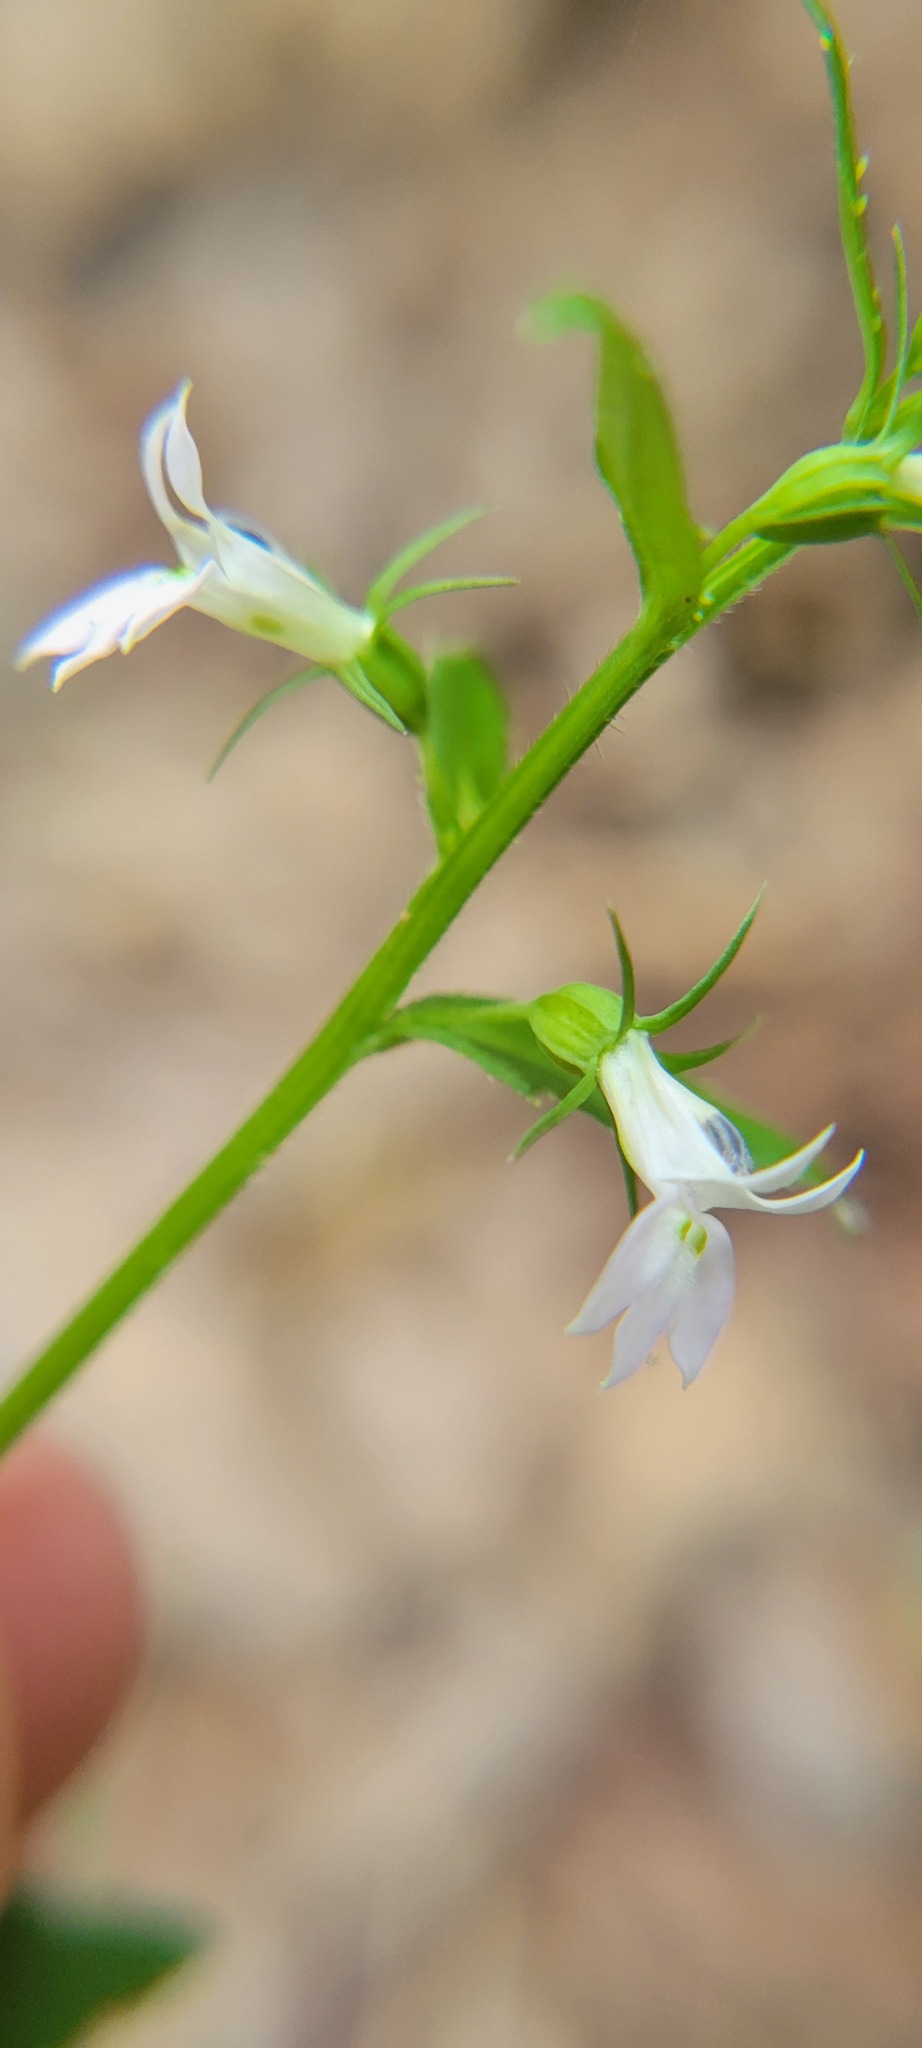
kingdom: Plantae
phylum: Tracheophyta
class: Magnoliopsida
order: Asterales
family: Campanulaceae
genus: Lobelia
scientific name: Lobelia inflata
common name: Indian tobacco
